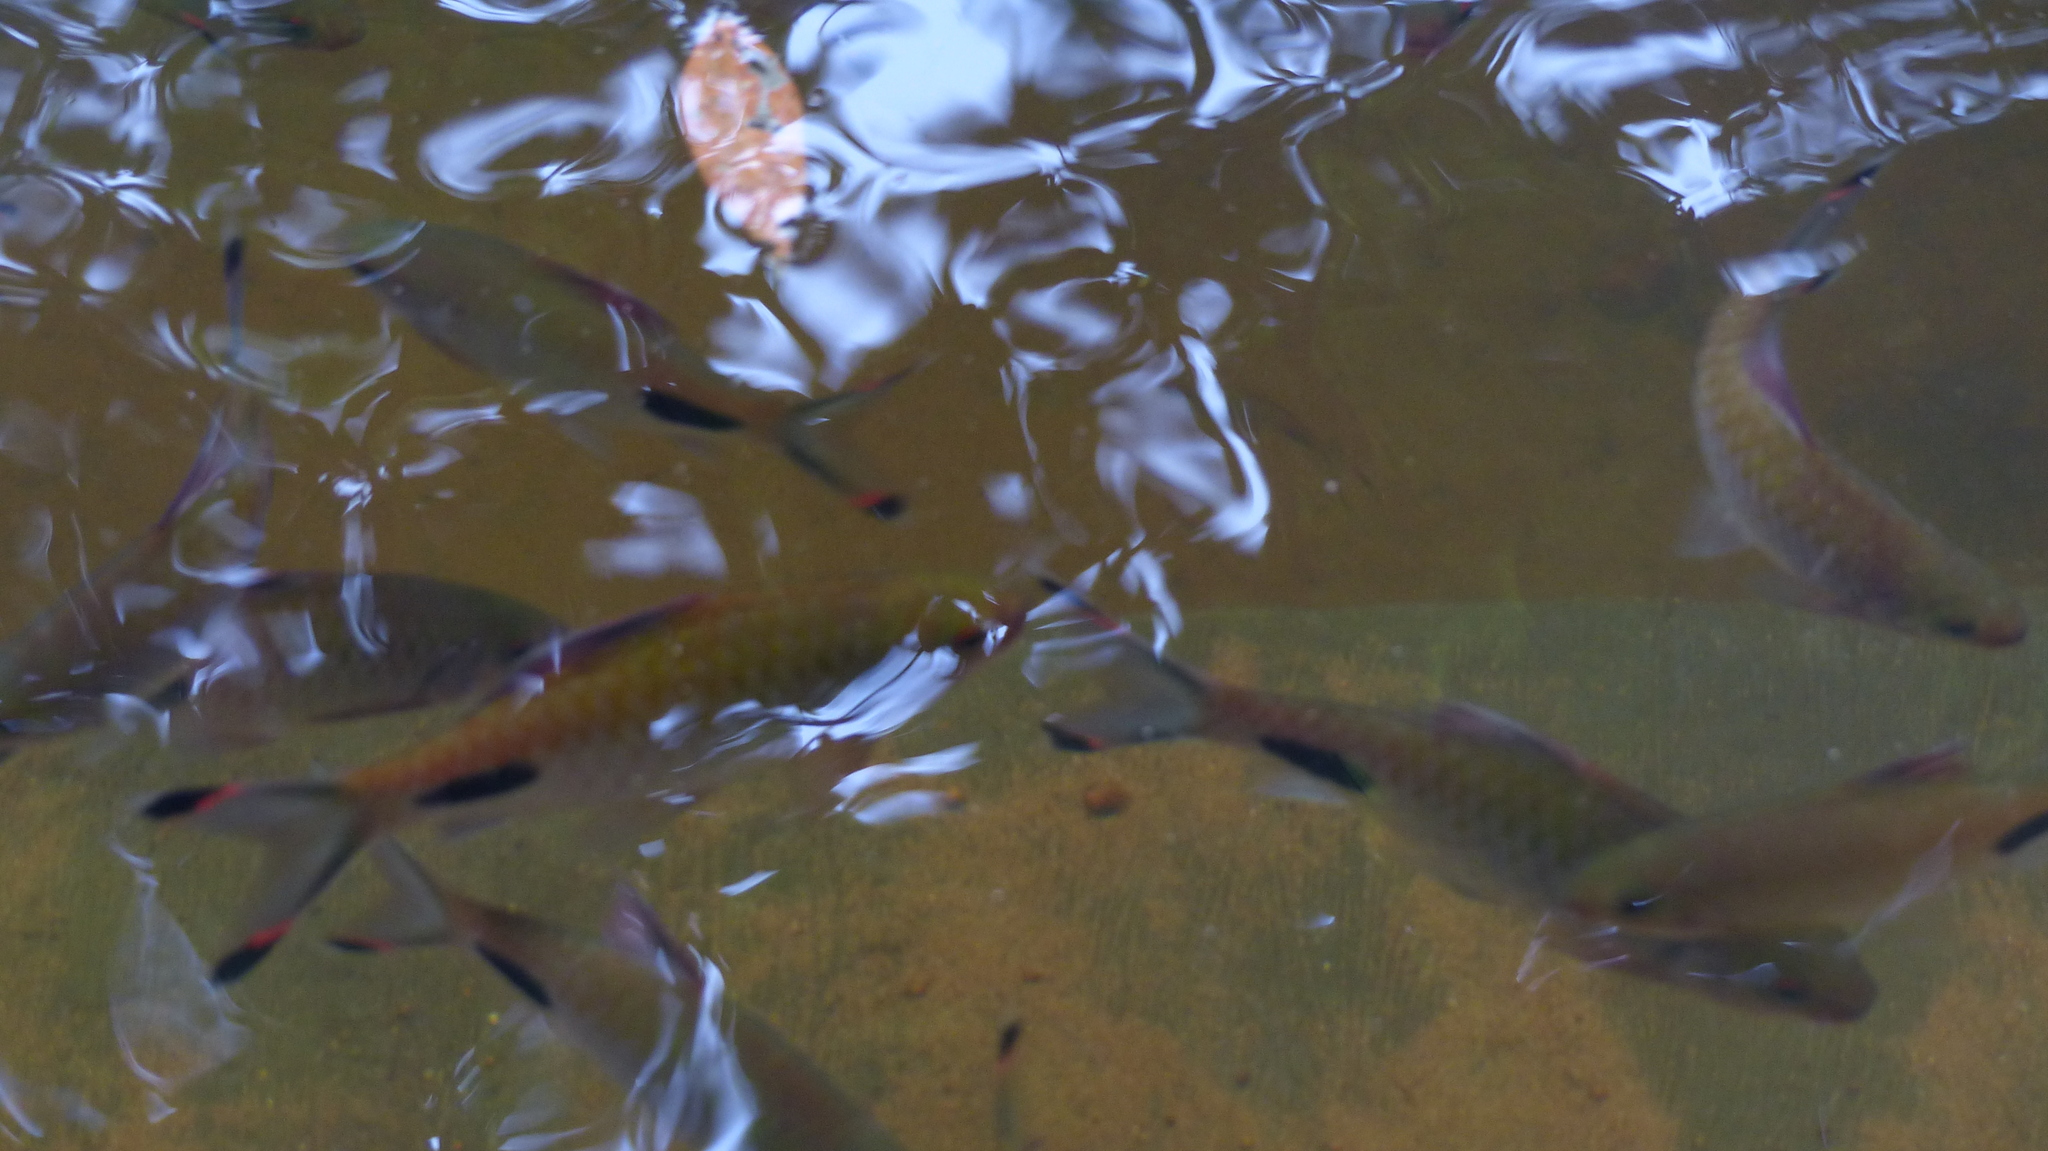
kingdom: Animalia
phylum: Chordata
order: Cypriniformes
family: Cyprinidae
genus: Dawkinsia
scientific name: Dawkinsia filamentosa
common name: Filament barb
